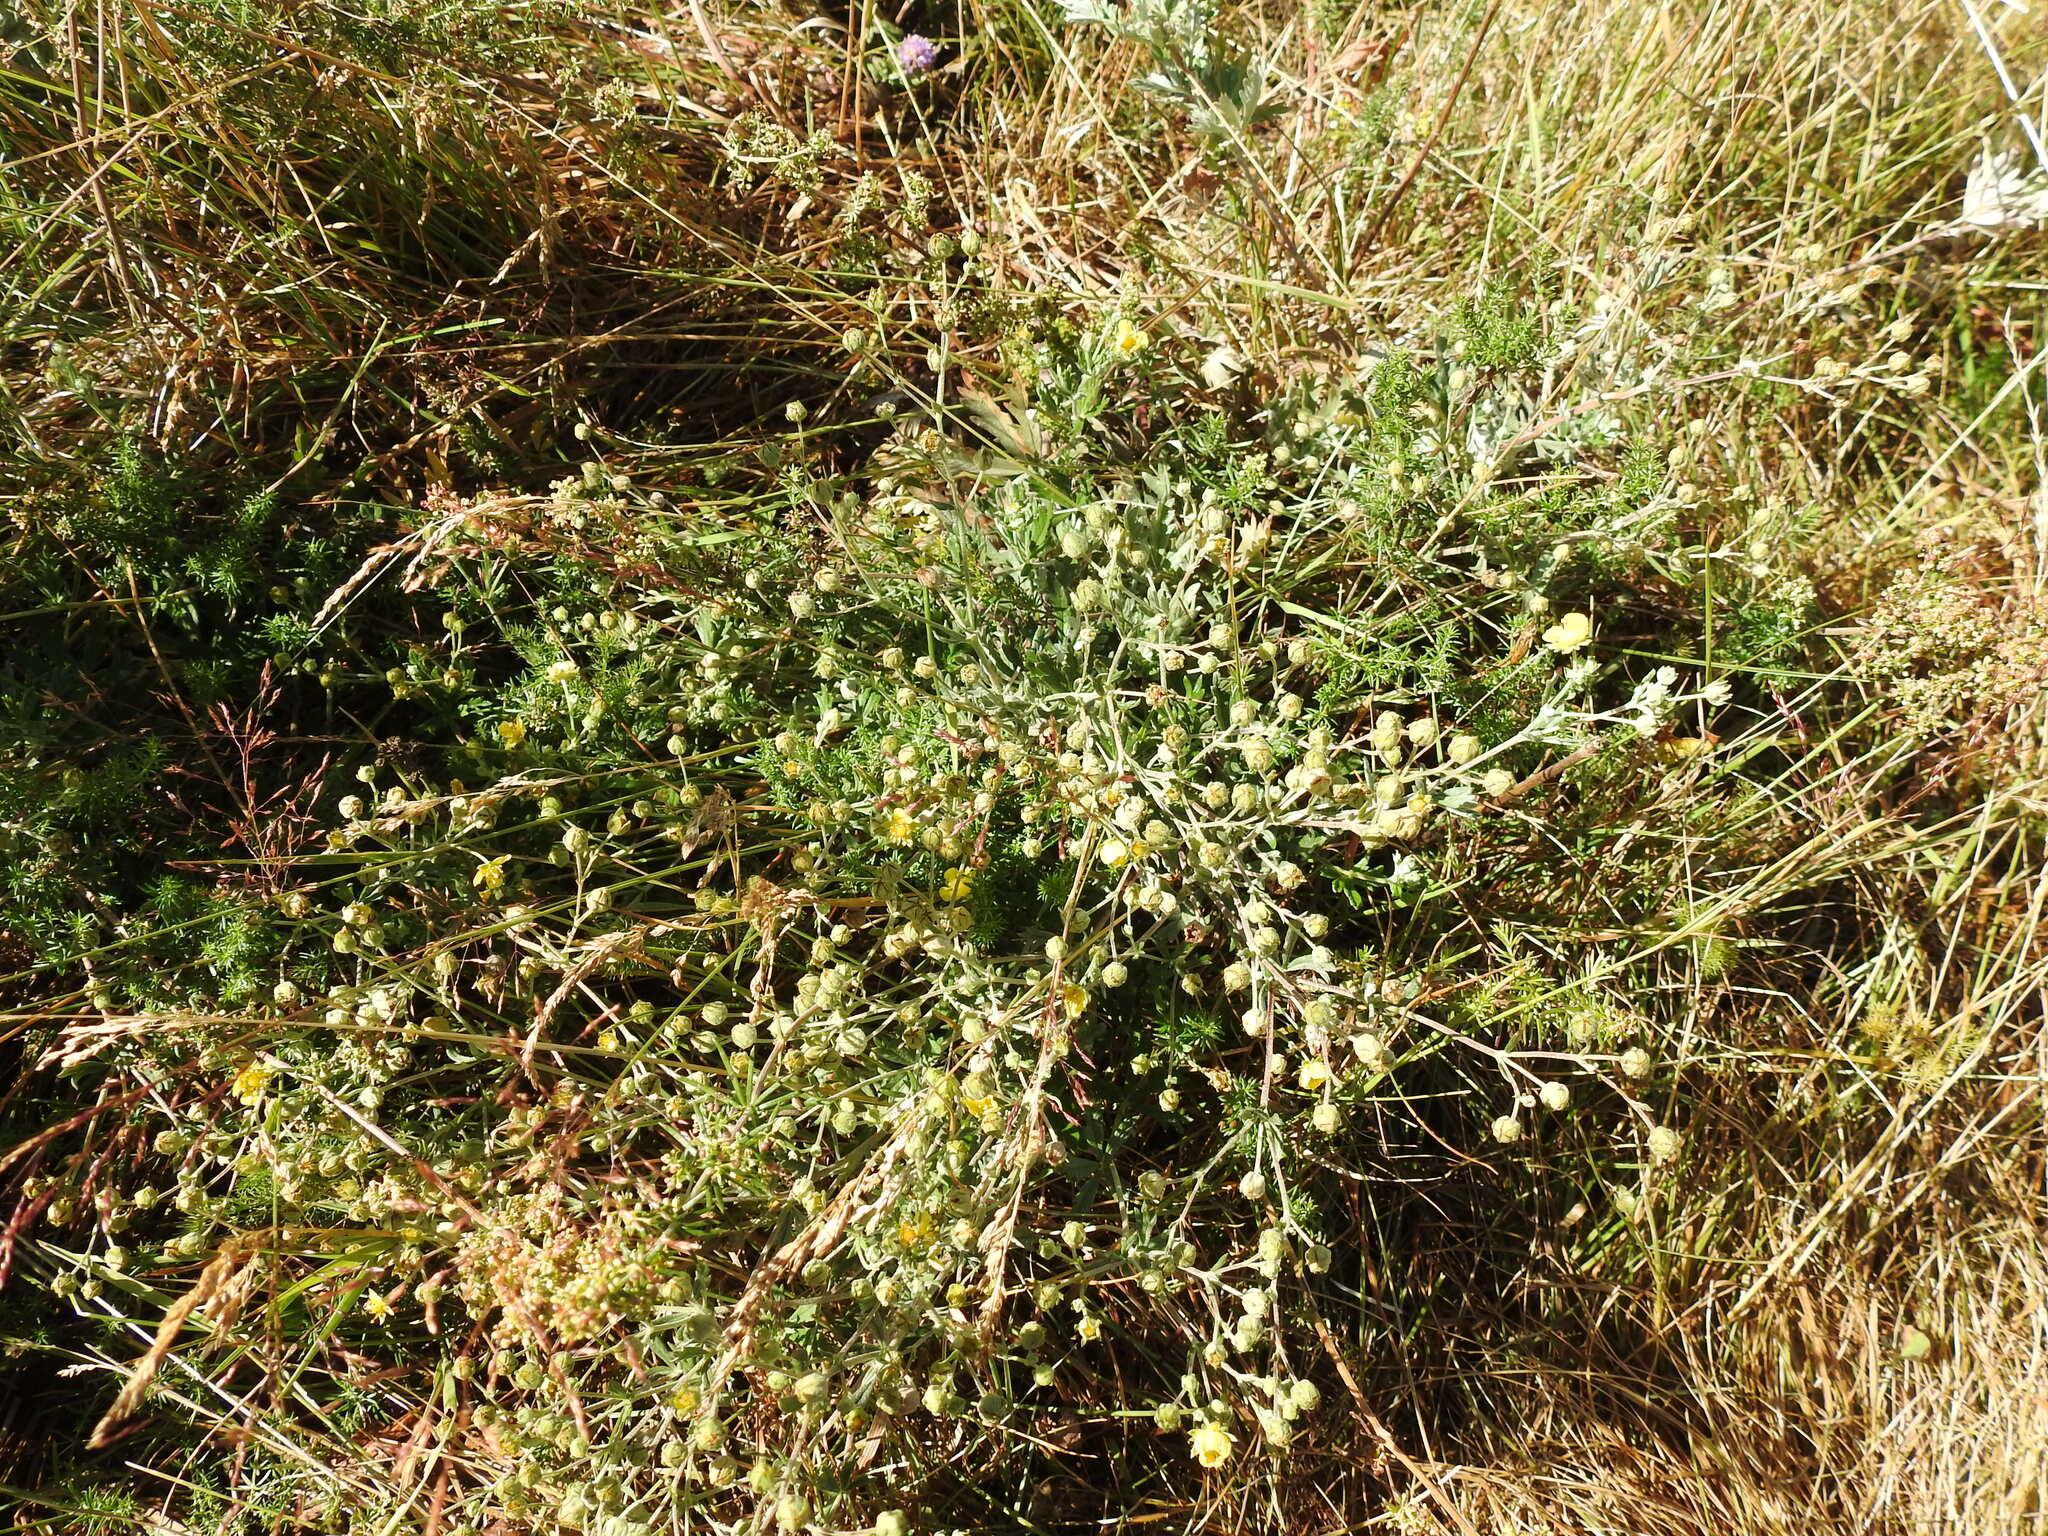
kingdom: Plantae
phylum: Tracheophyta
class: Magnoliopsida
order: Rosales
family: Rosaceae
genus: Potentilla
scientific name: Potentilla argentea
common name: Hoary cinquefoil
